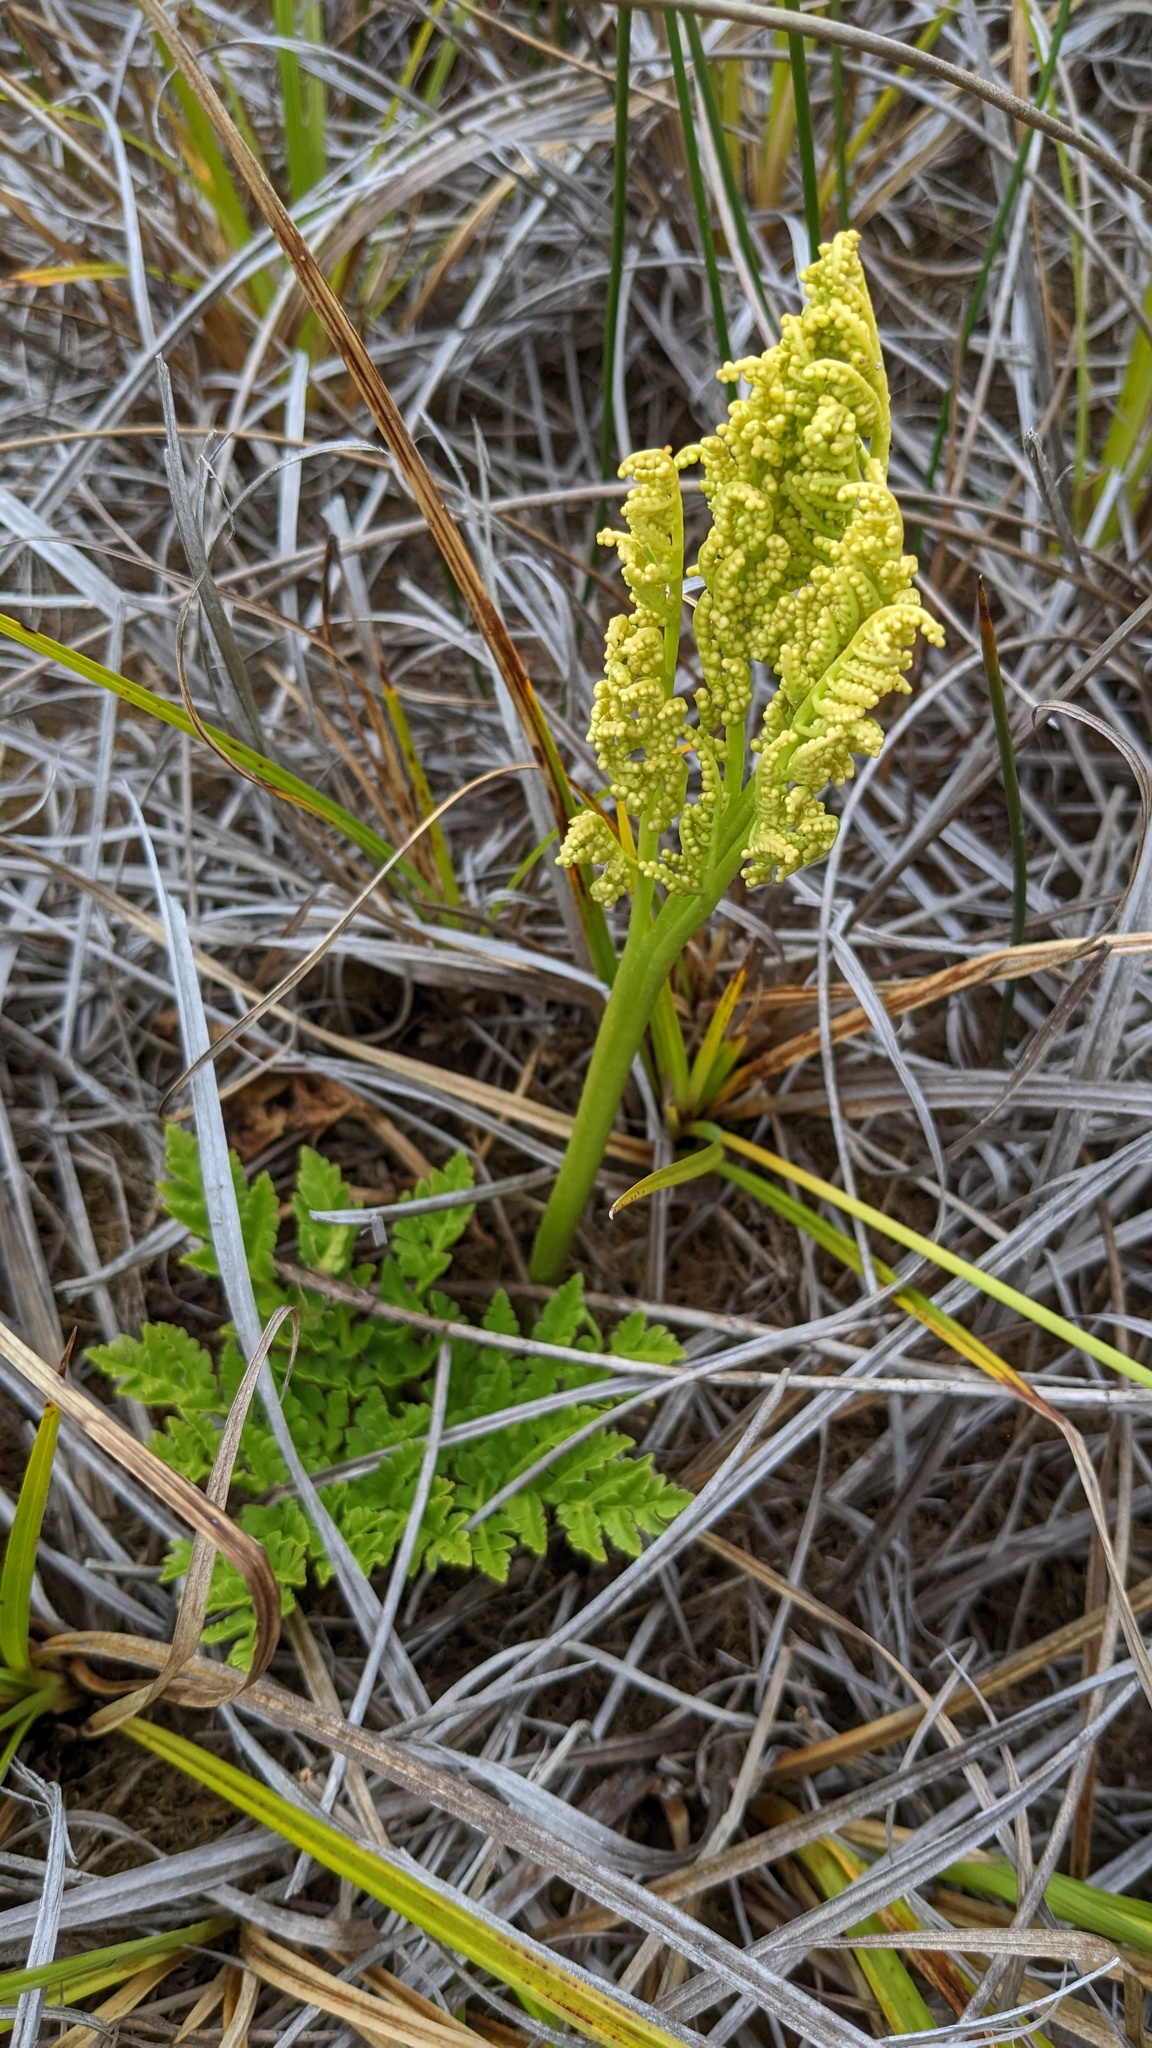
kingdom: Plantae
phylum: Tracheophyta
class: Polypodiopsida
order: Ophioglossales
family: Ophioglossaceae
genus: Sceptridium
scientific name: Sceptridium multifidum
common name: Leathery grape fern
